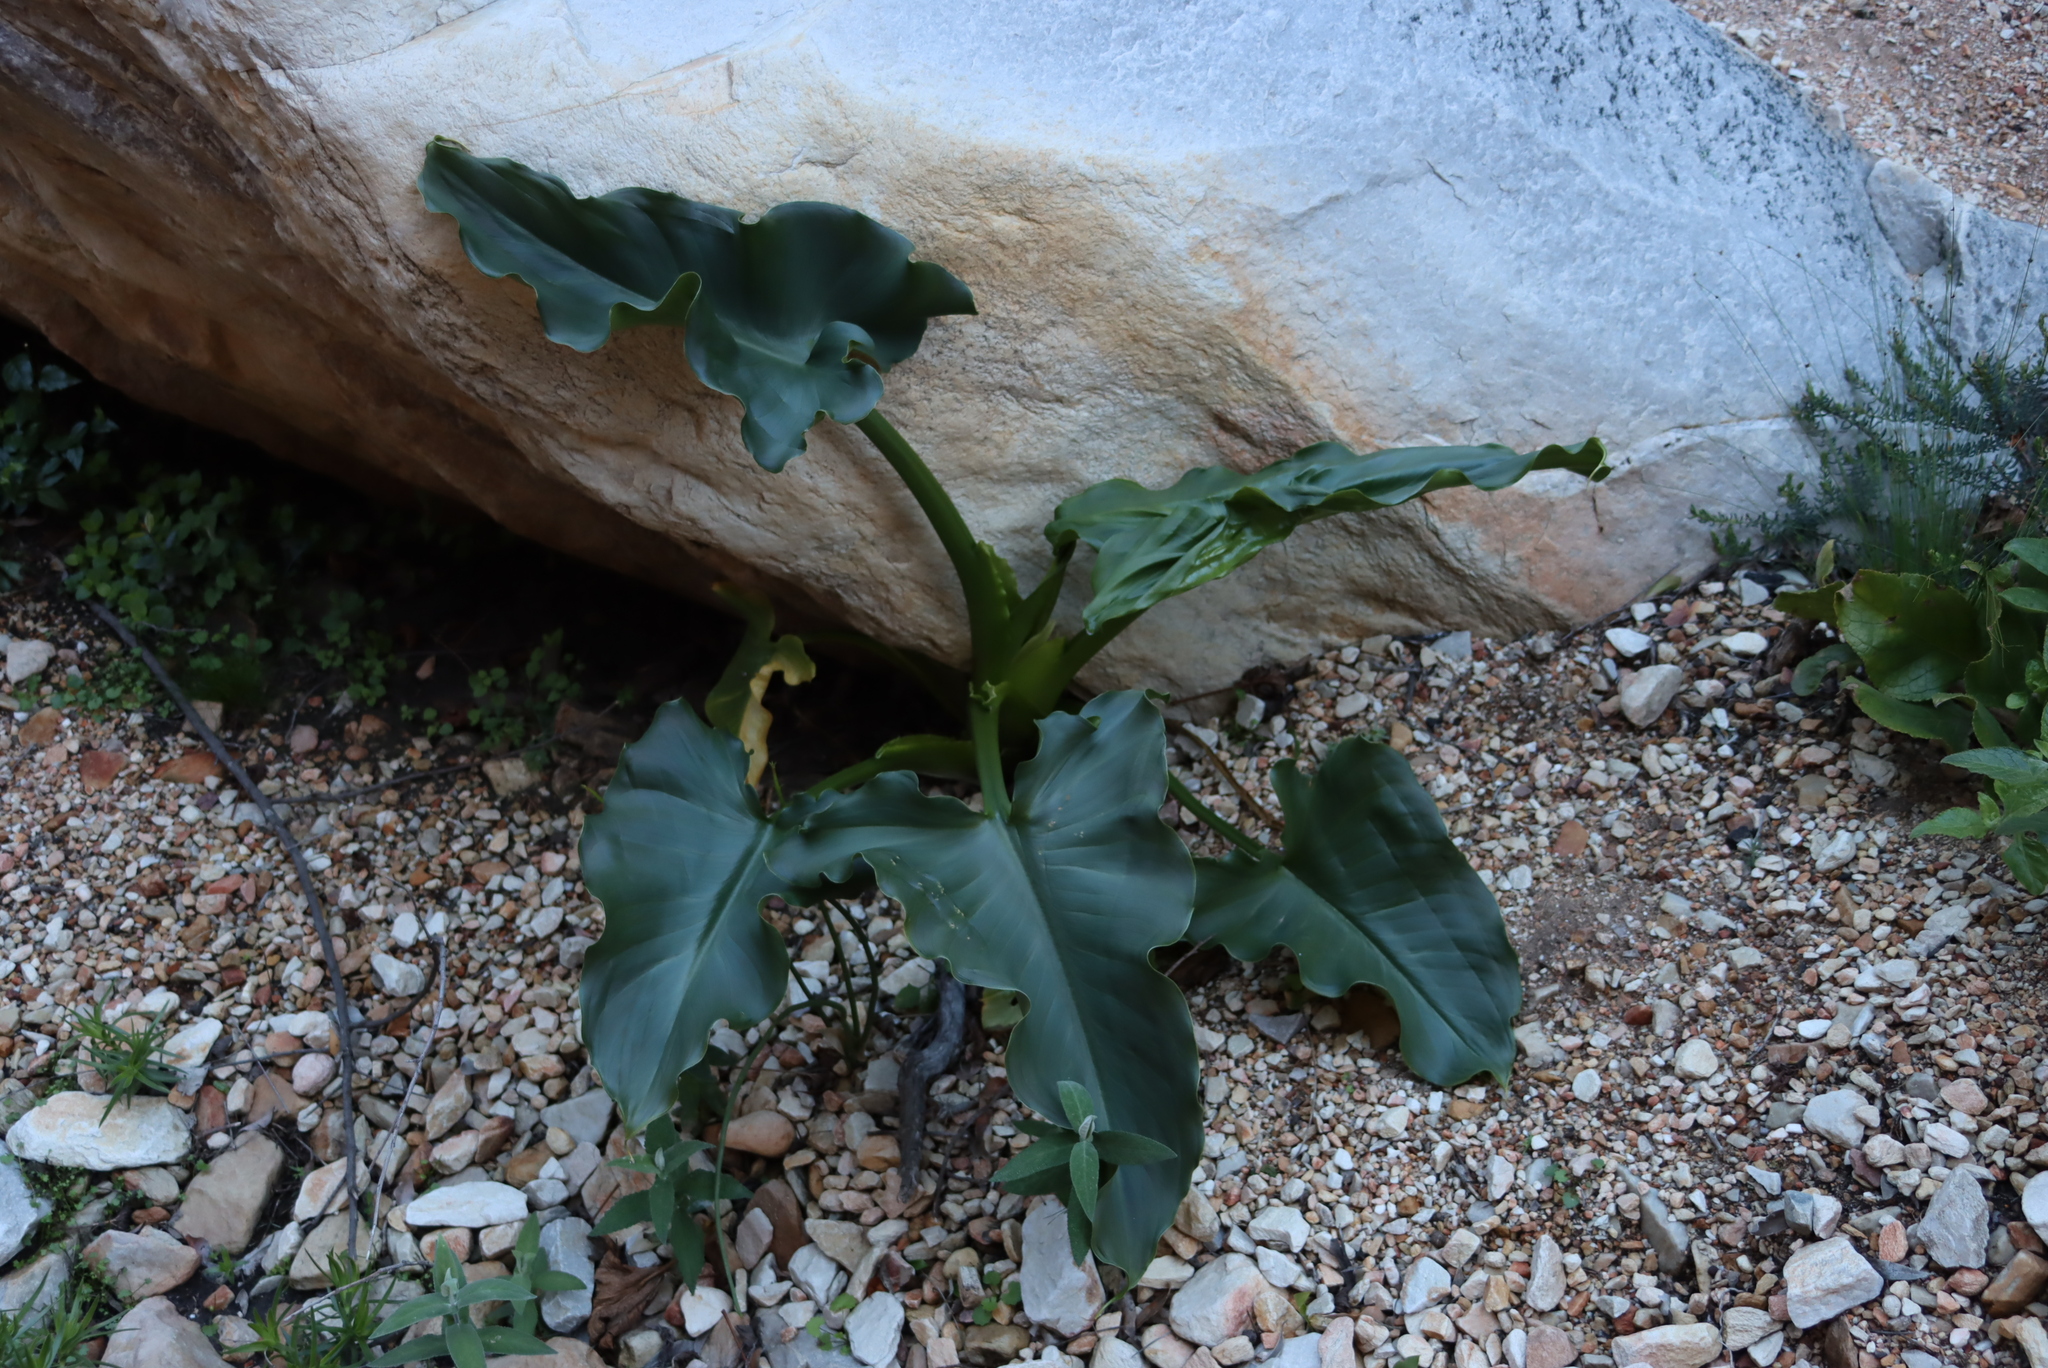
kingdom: Plantae
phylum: Tracheophyta
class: Liliopsida
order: Alismatales
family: Araceae
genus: Zantedeschia
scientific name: Zantedeschia aethiopica
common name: Altar-lily
